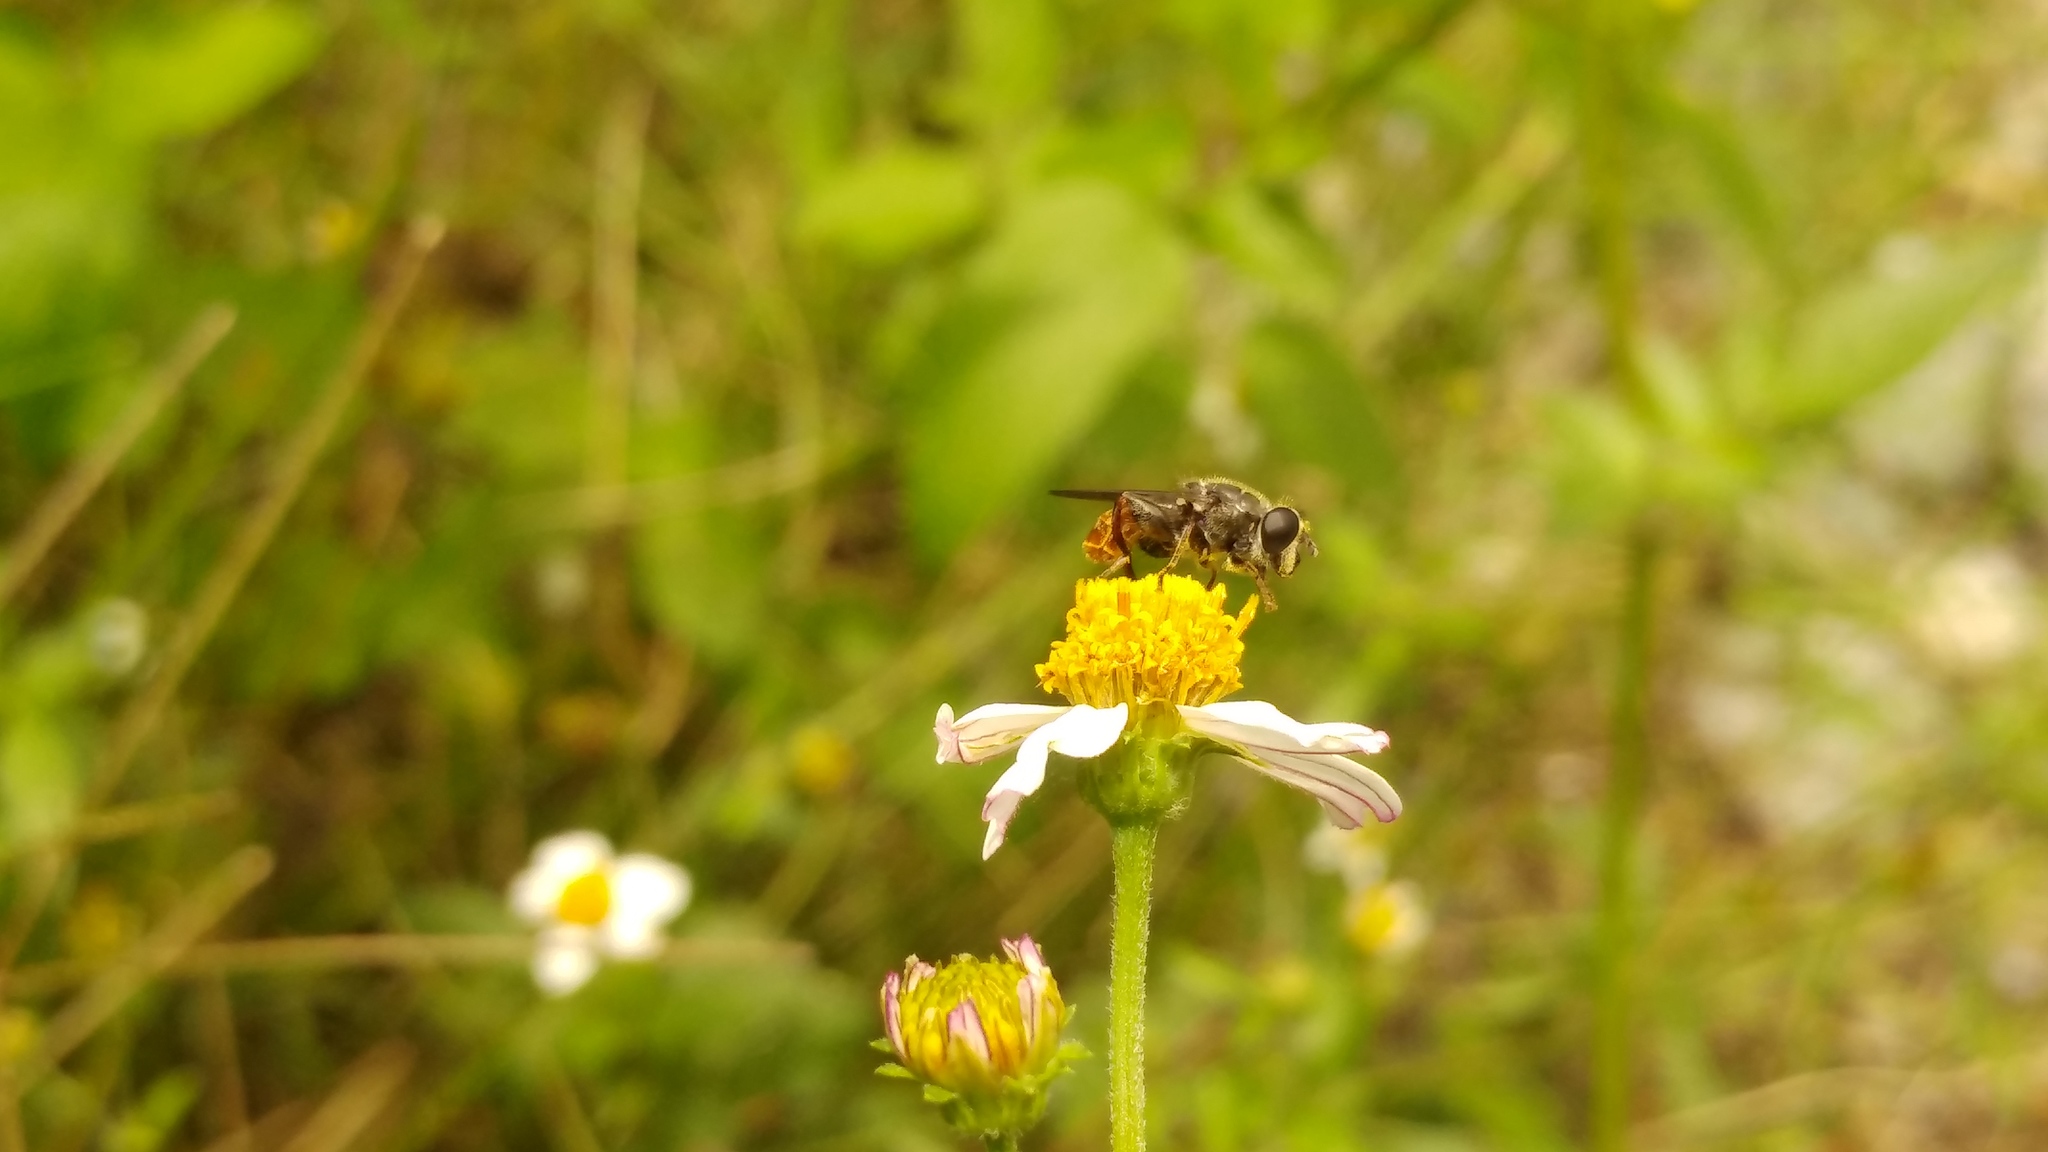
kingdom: Animalia
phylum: Arthropoda
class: Insecta
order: Diptera
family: Syrphidae
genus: Asemosyrphus
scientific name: Asemosyrphus
